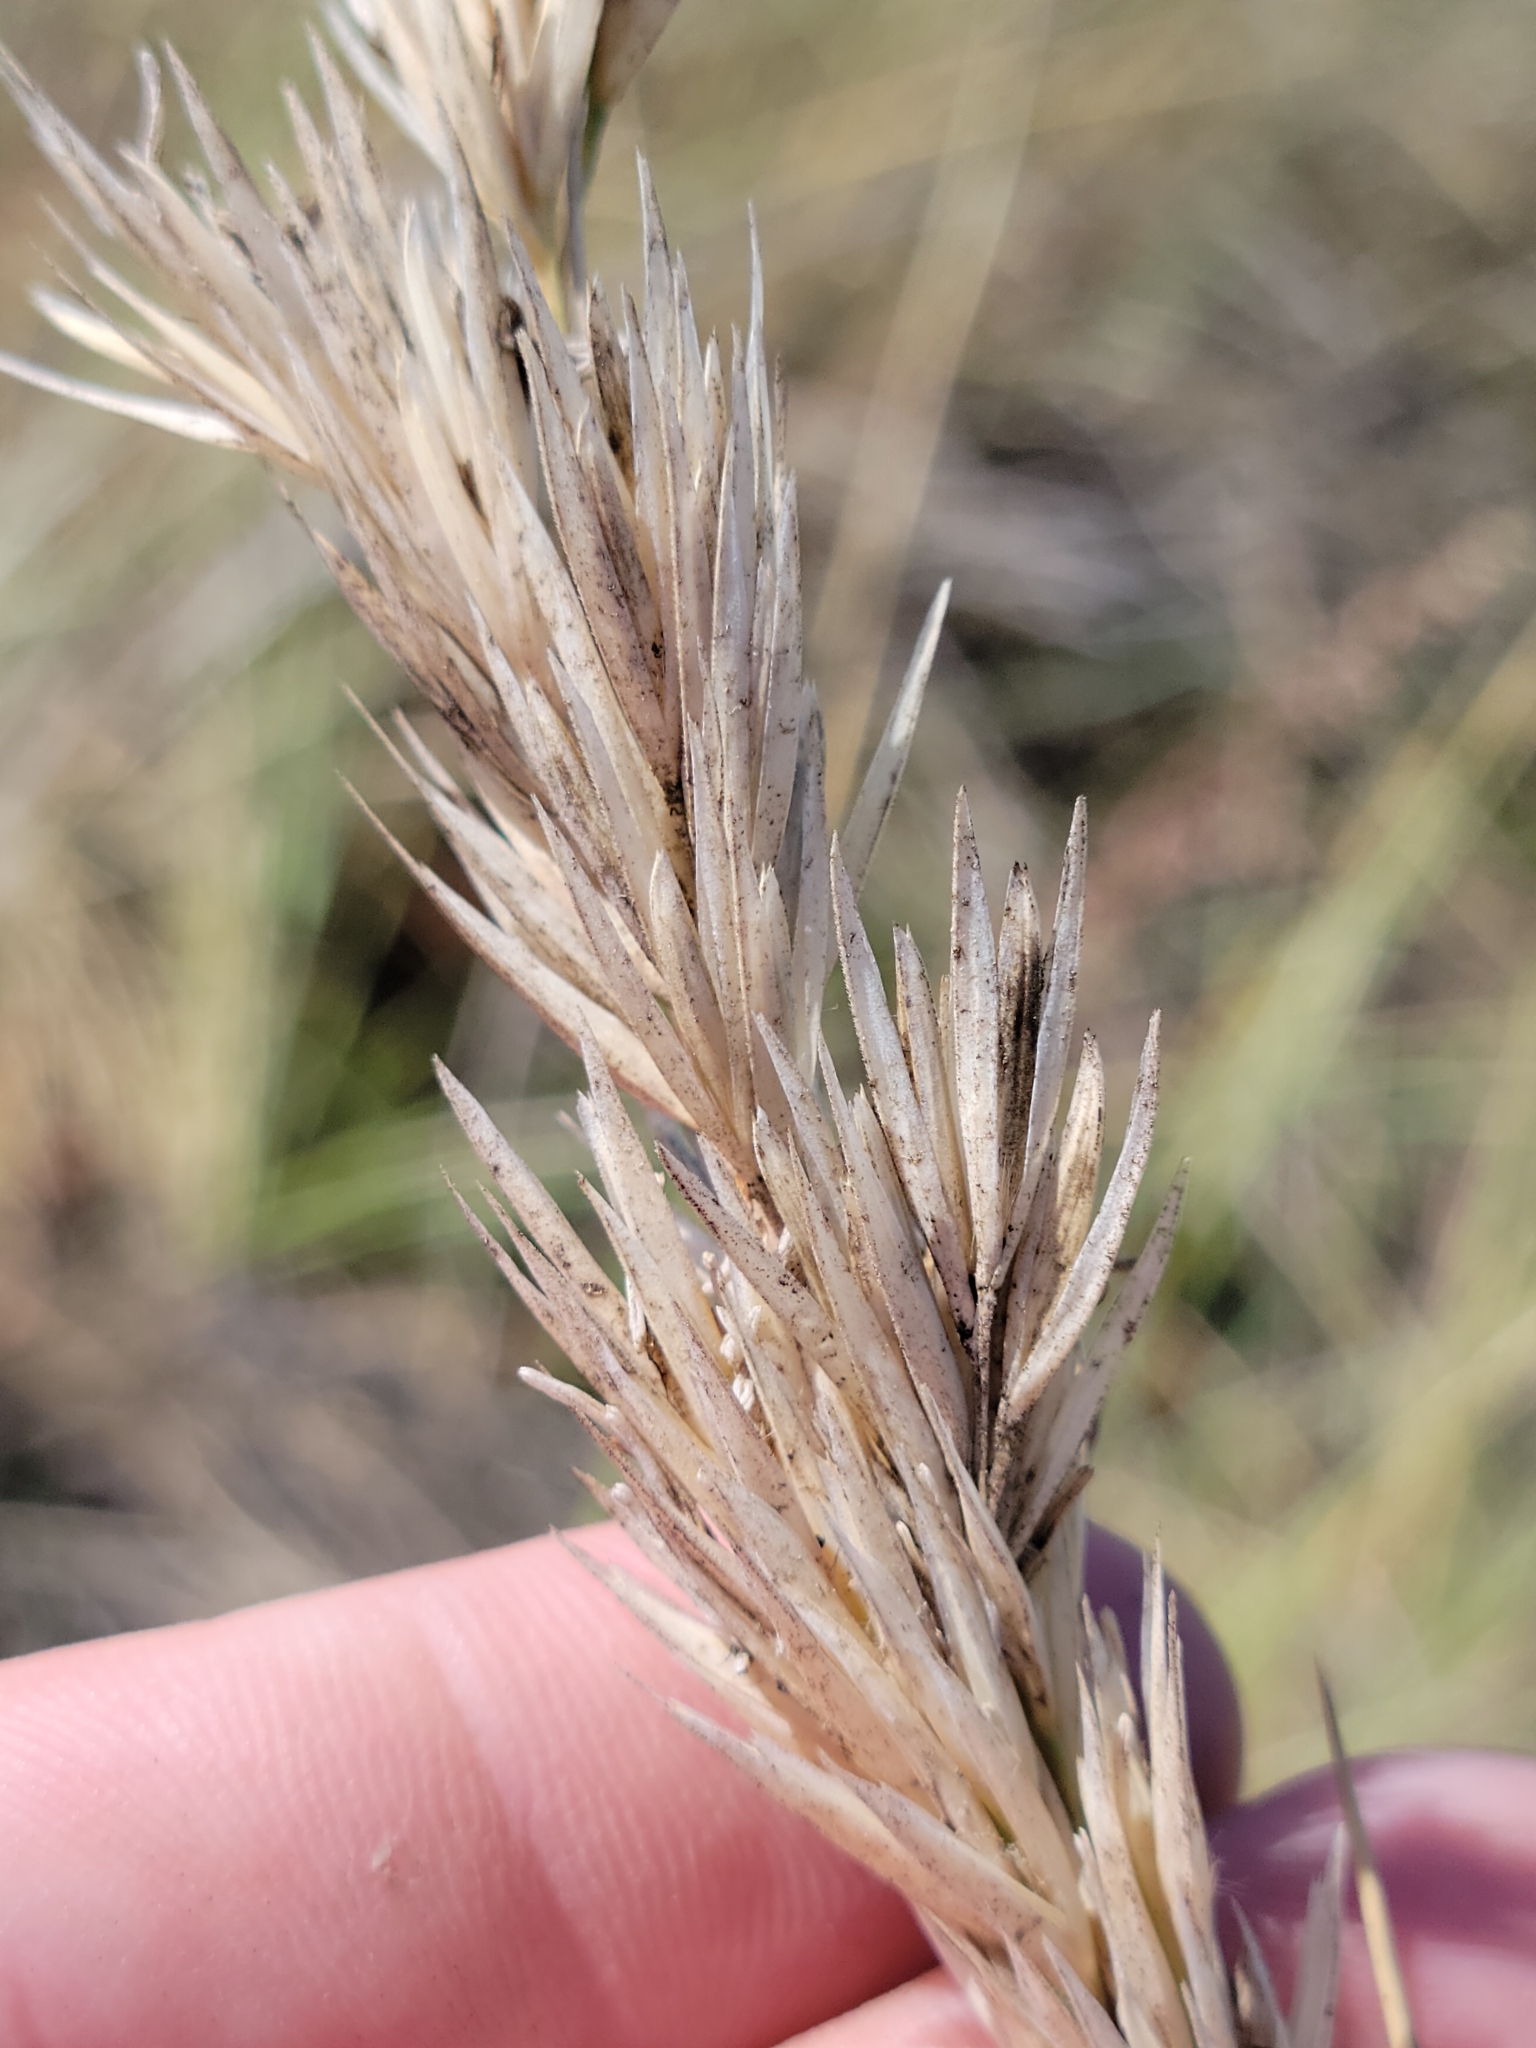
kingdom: Plantae
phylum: Tracheophyta
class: Liliopsida
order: Poales
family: Poaceae
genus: Calamagrostis
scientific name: Calamagrostis arenaria
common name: European beachgrass
